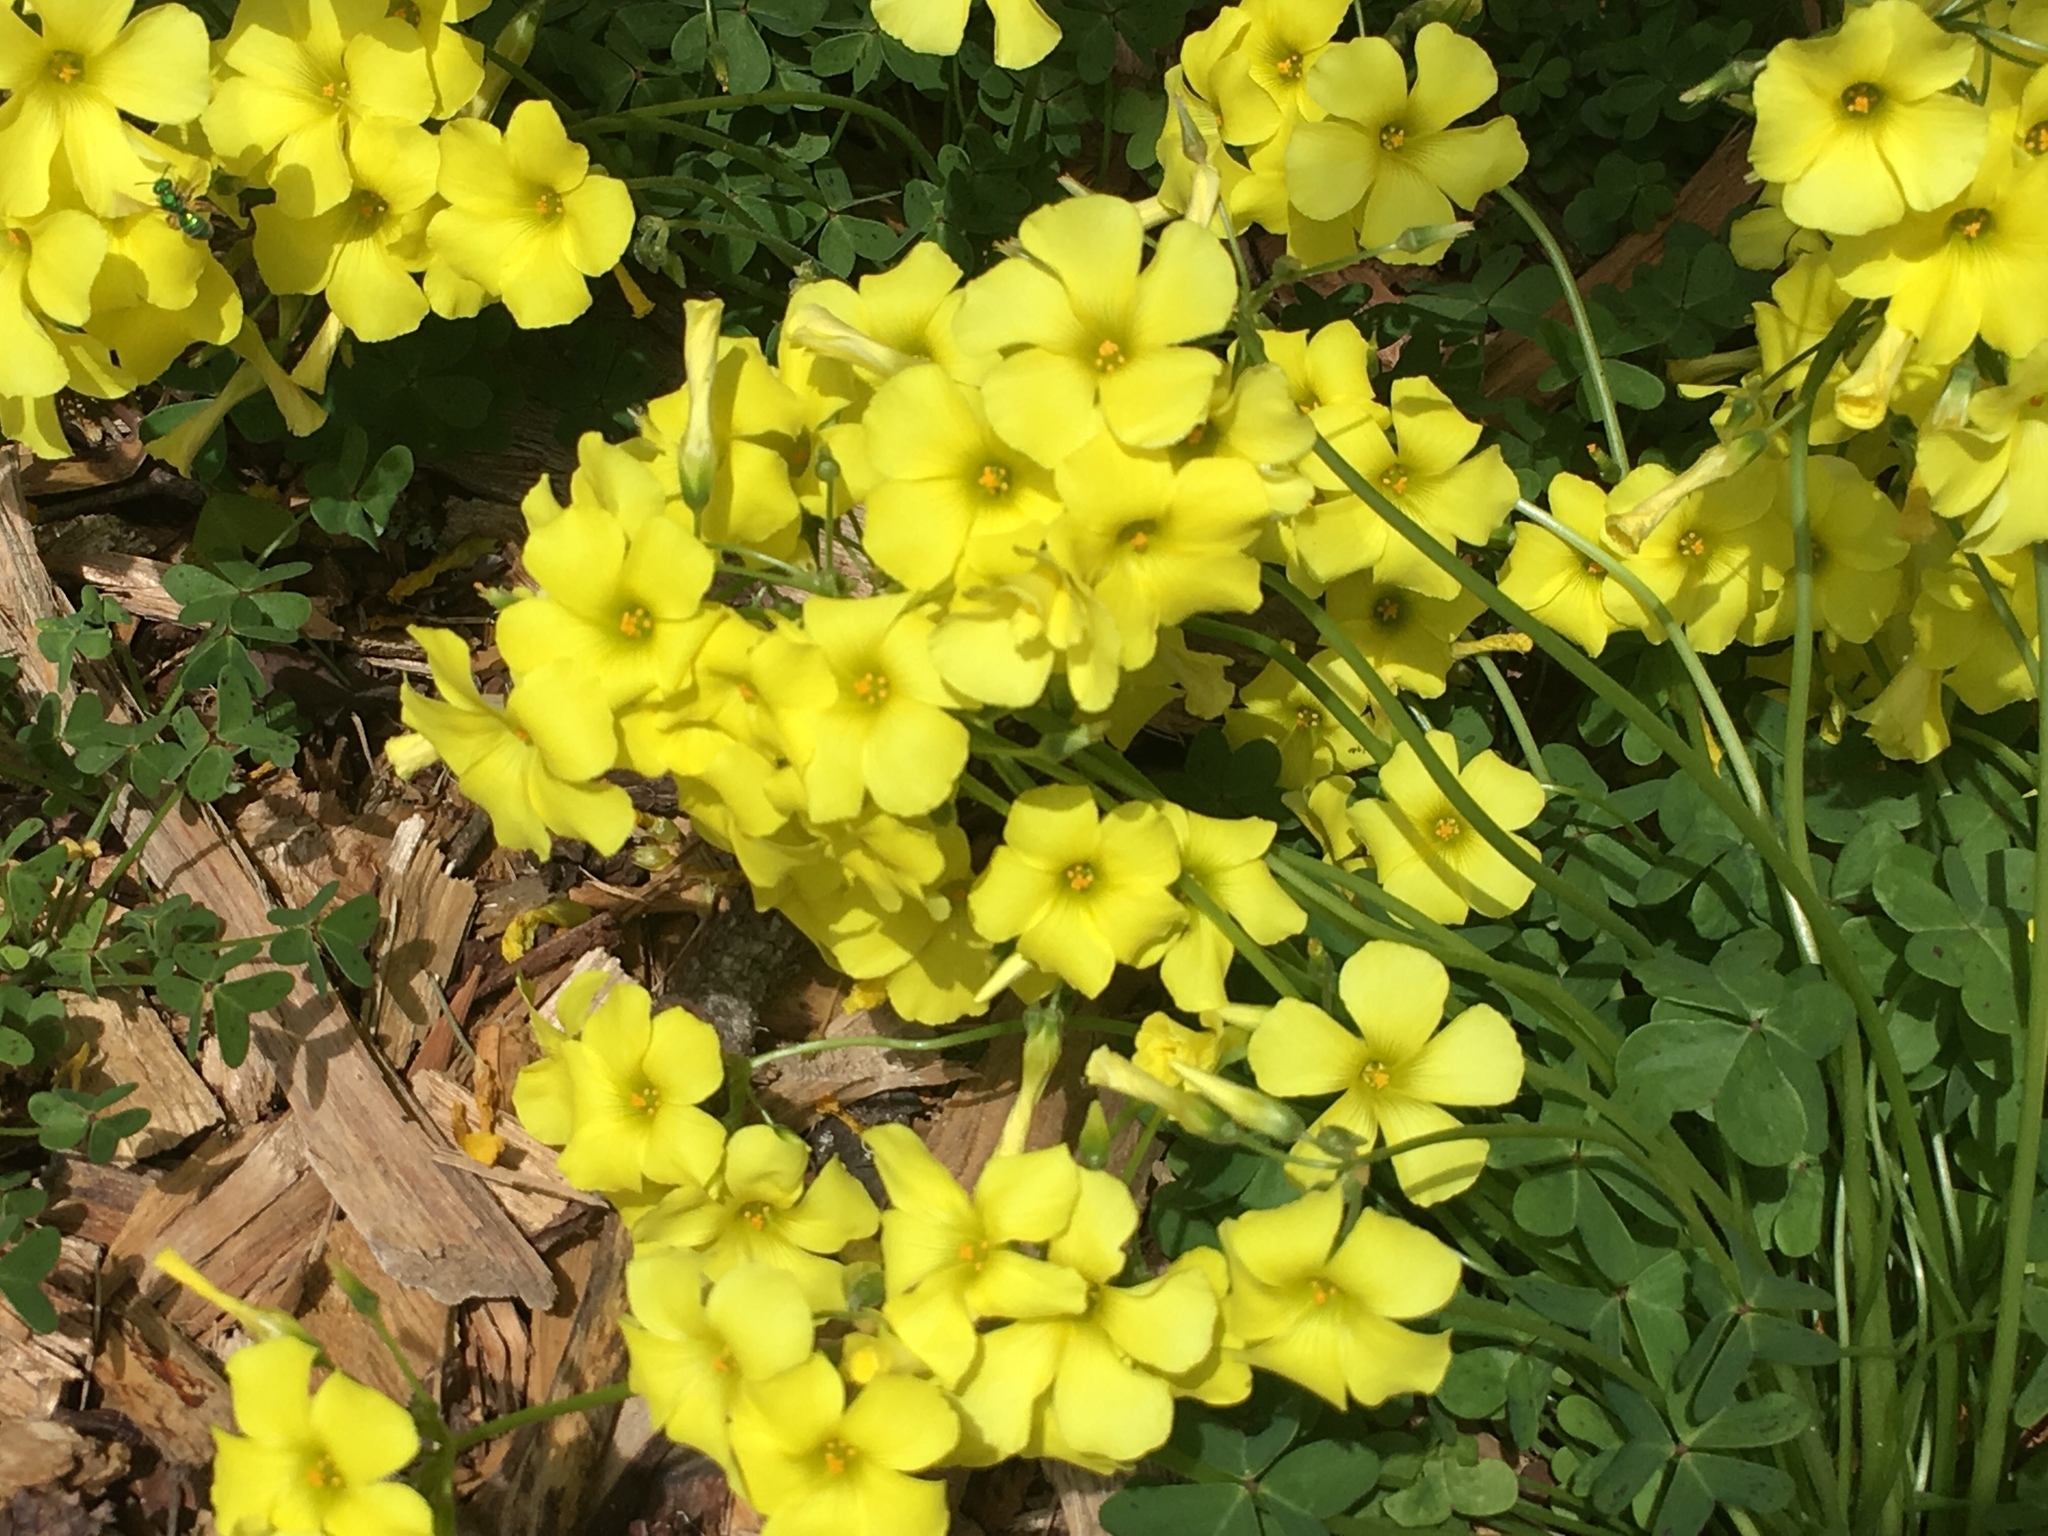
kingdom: Plantae
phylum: Tracheophyta
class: Magnoliopsida
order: Oxalidales
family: Oxalidaceae
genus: Oxalis
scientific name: Oxalis pes-caprae
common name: Bermuda-buttercup
